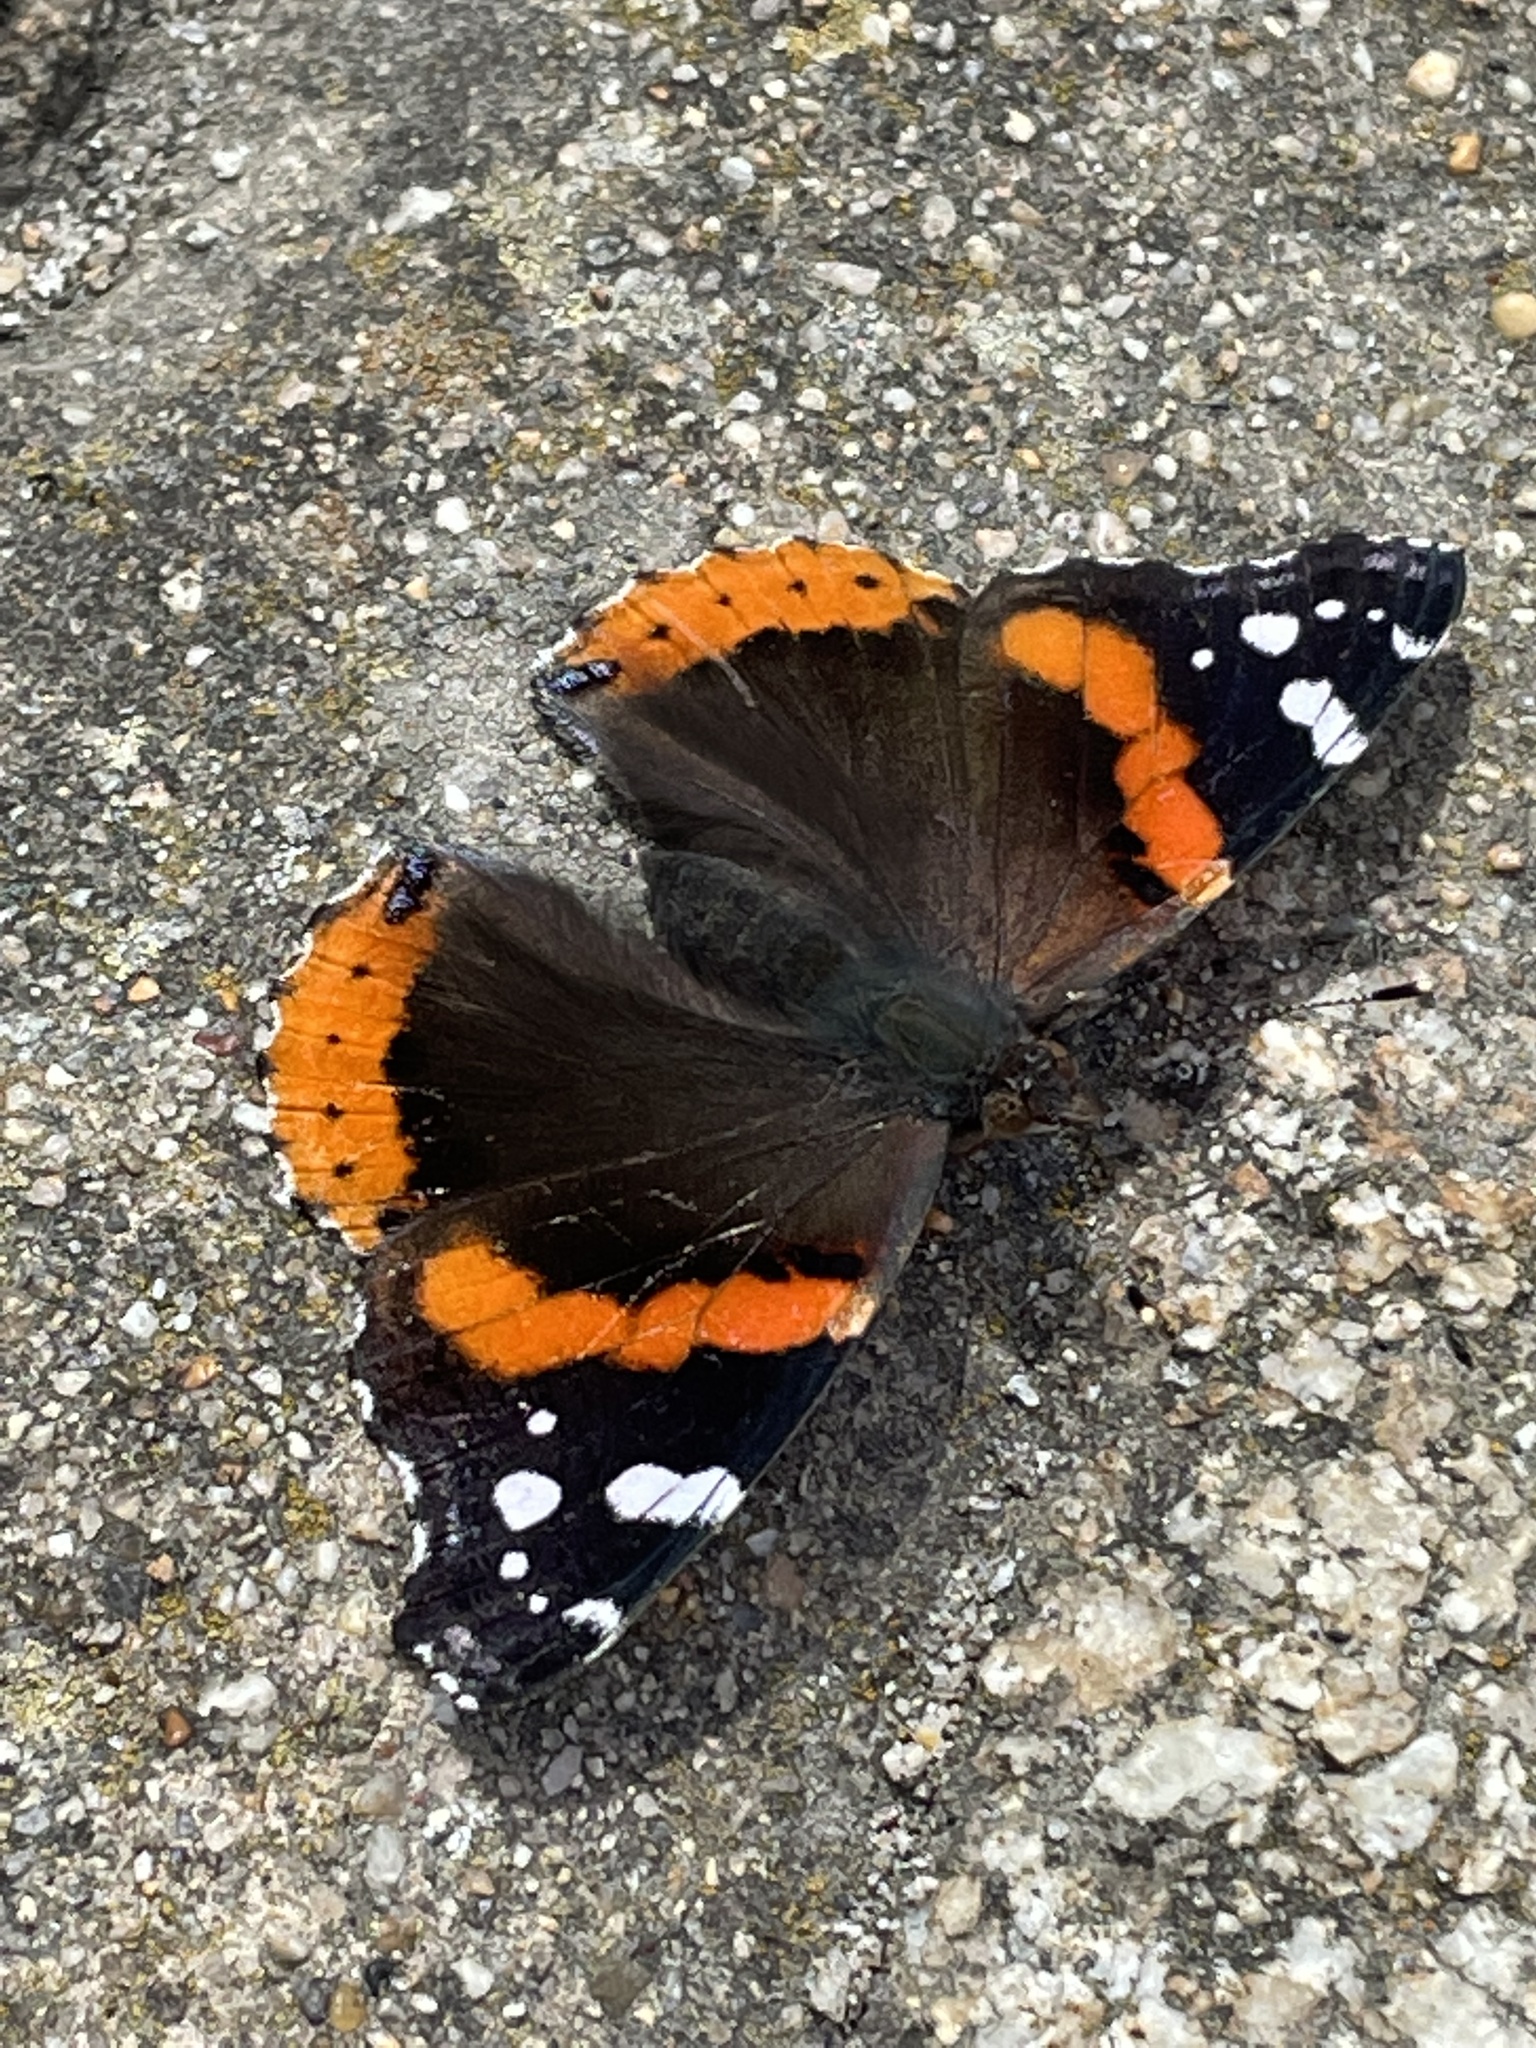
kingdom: Animalia
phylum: Arthropoda
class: Insecta
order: Lepidoptera
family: Nymphalidae
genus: Vanessa
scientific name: Vanessa atalanta
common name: Red admiral
